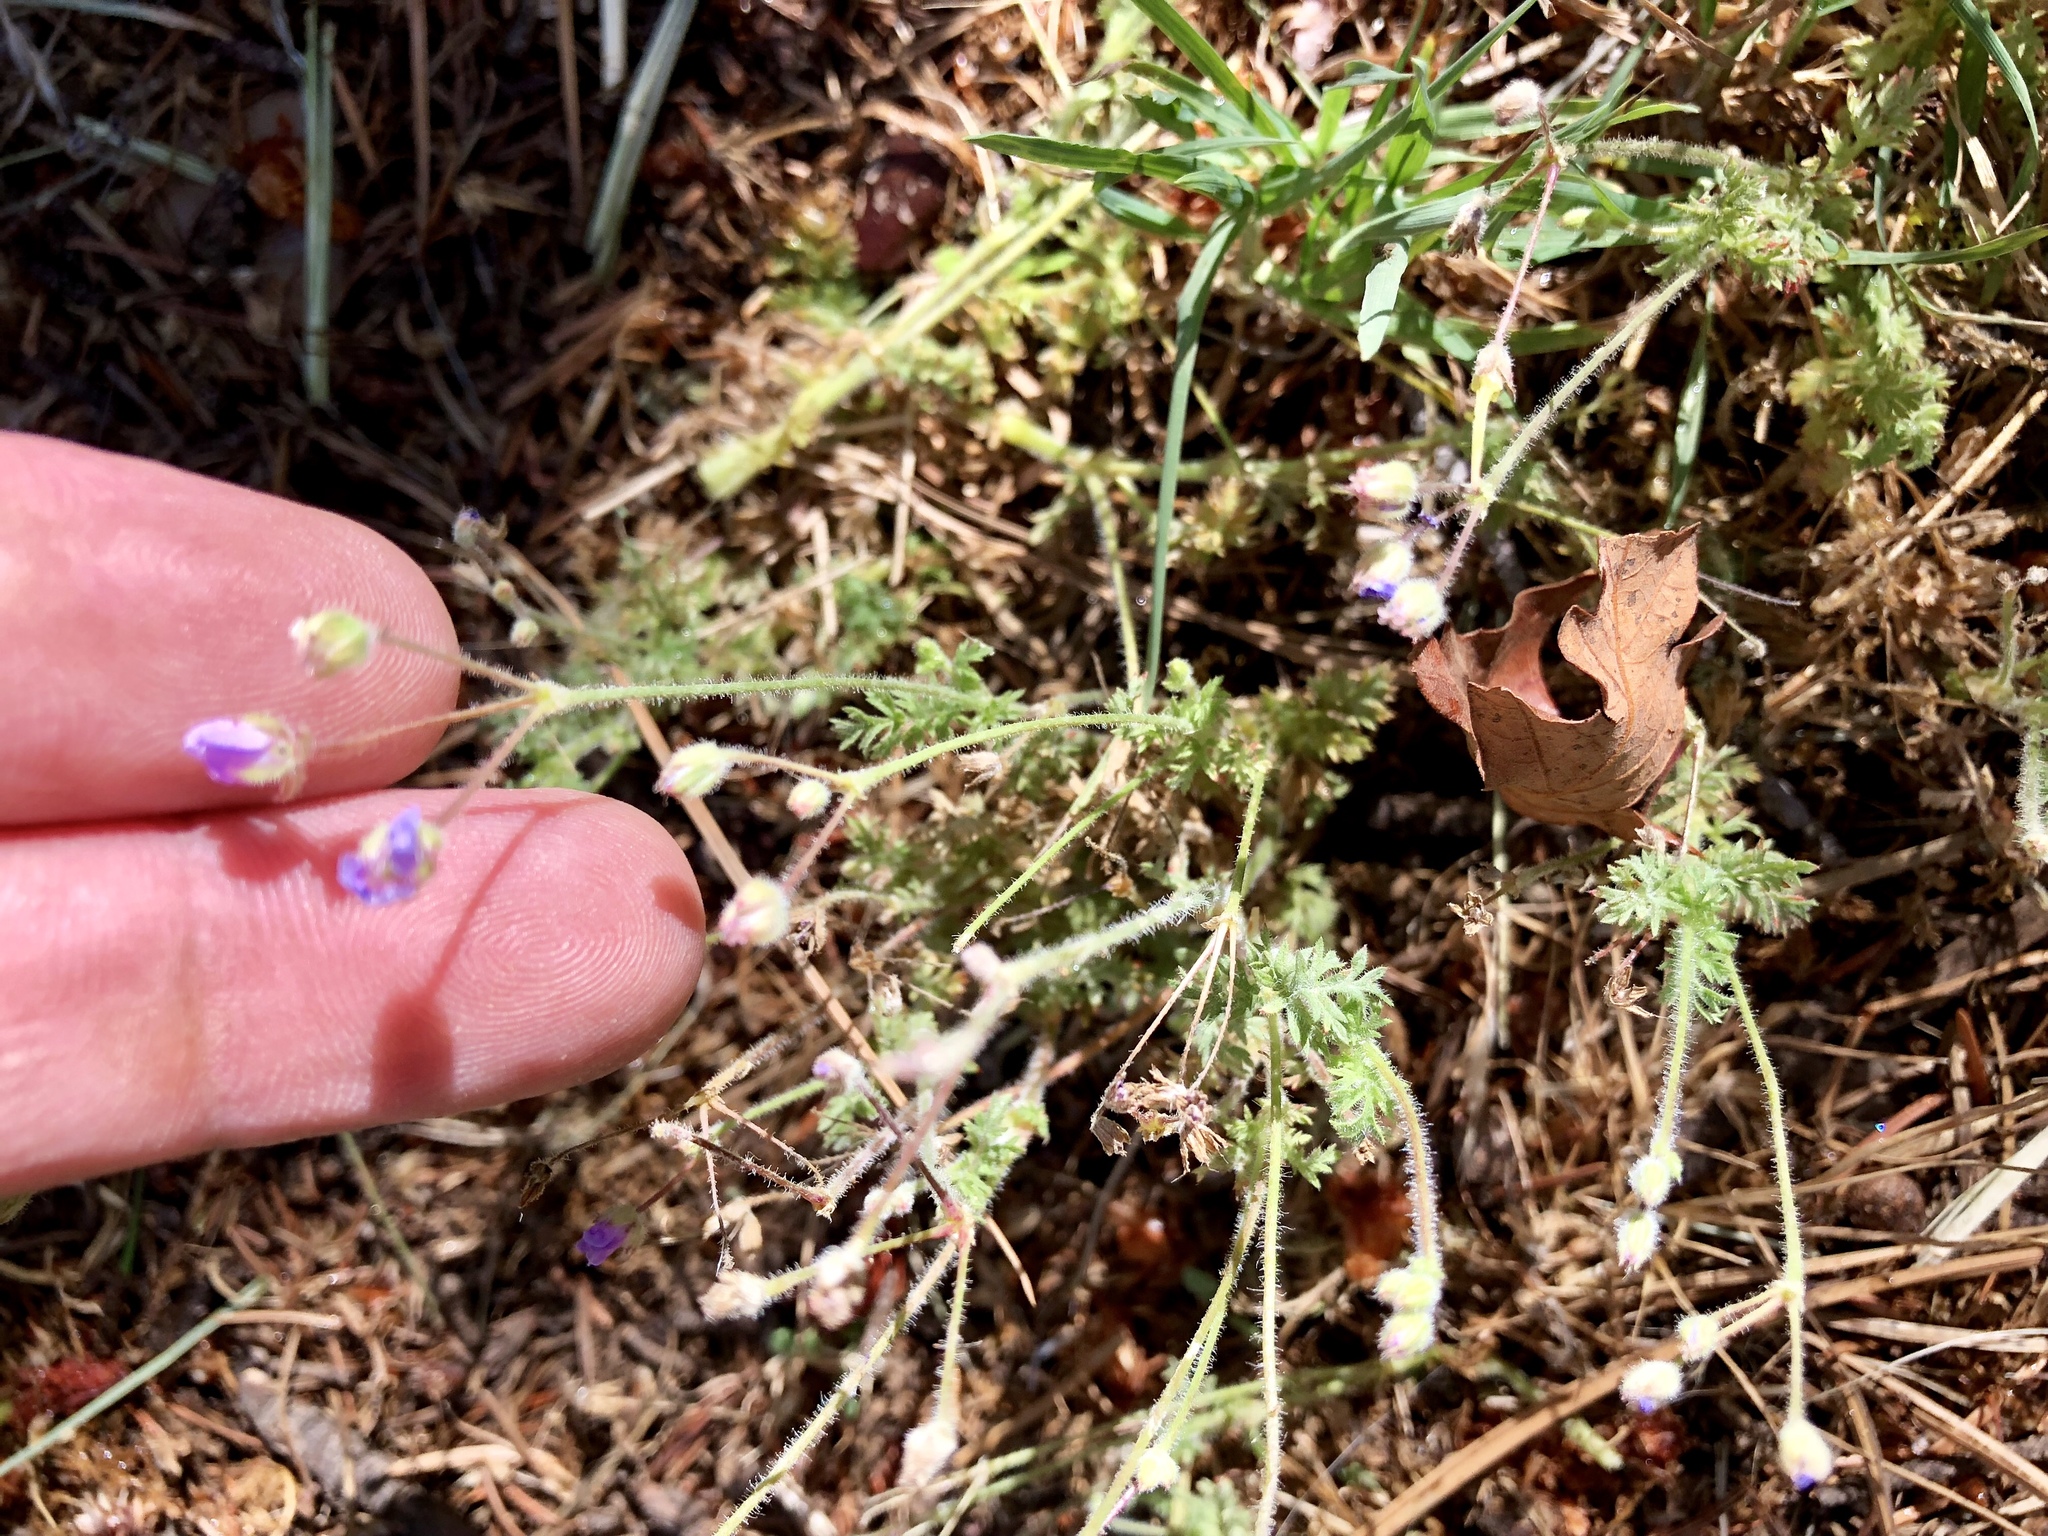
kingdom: Plantae
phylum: Tracheophyta
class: Magnoliopsida
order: Geraniales
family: Geraniaceae
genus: Erodium
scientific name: Erodium cicutarium
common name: Common stork's-bill
